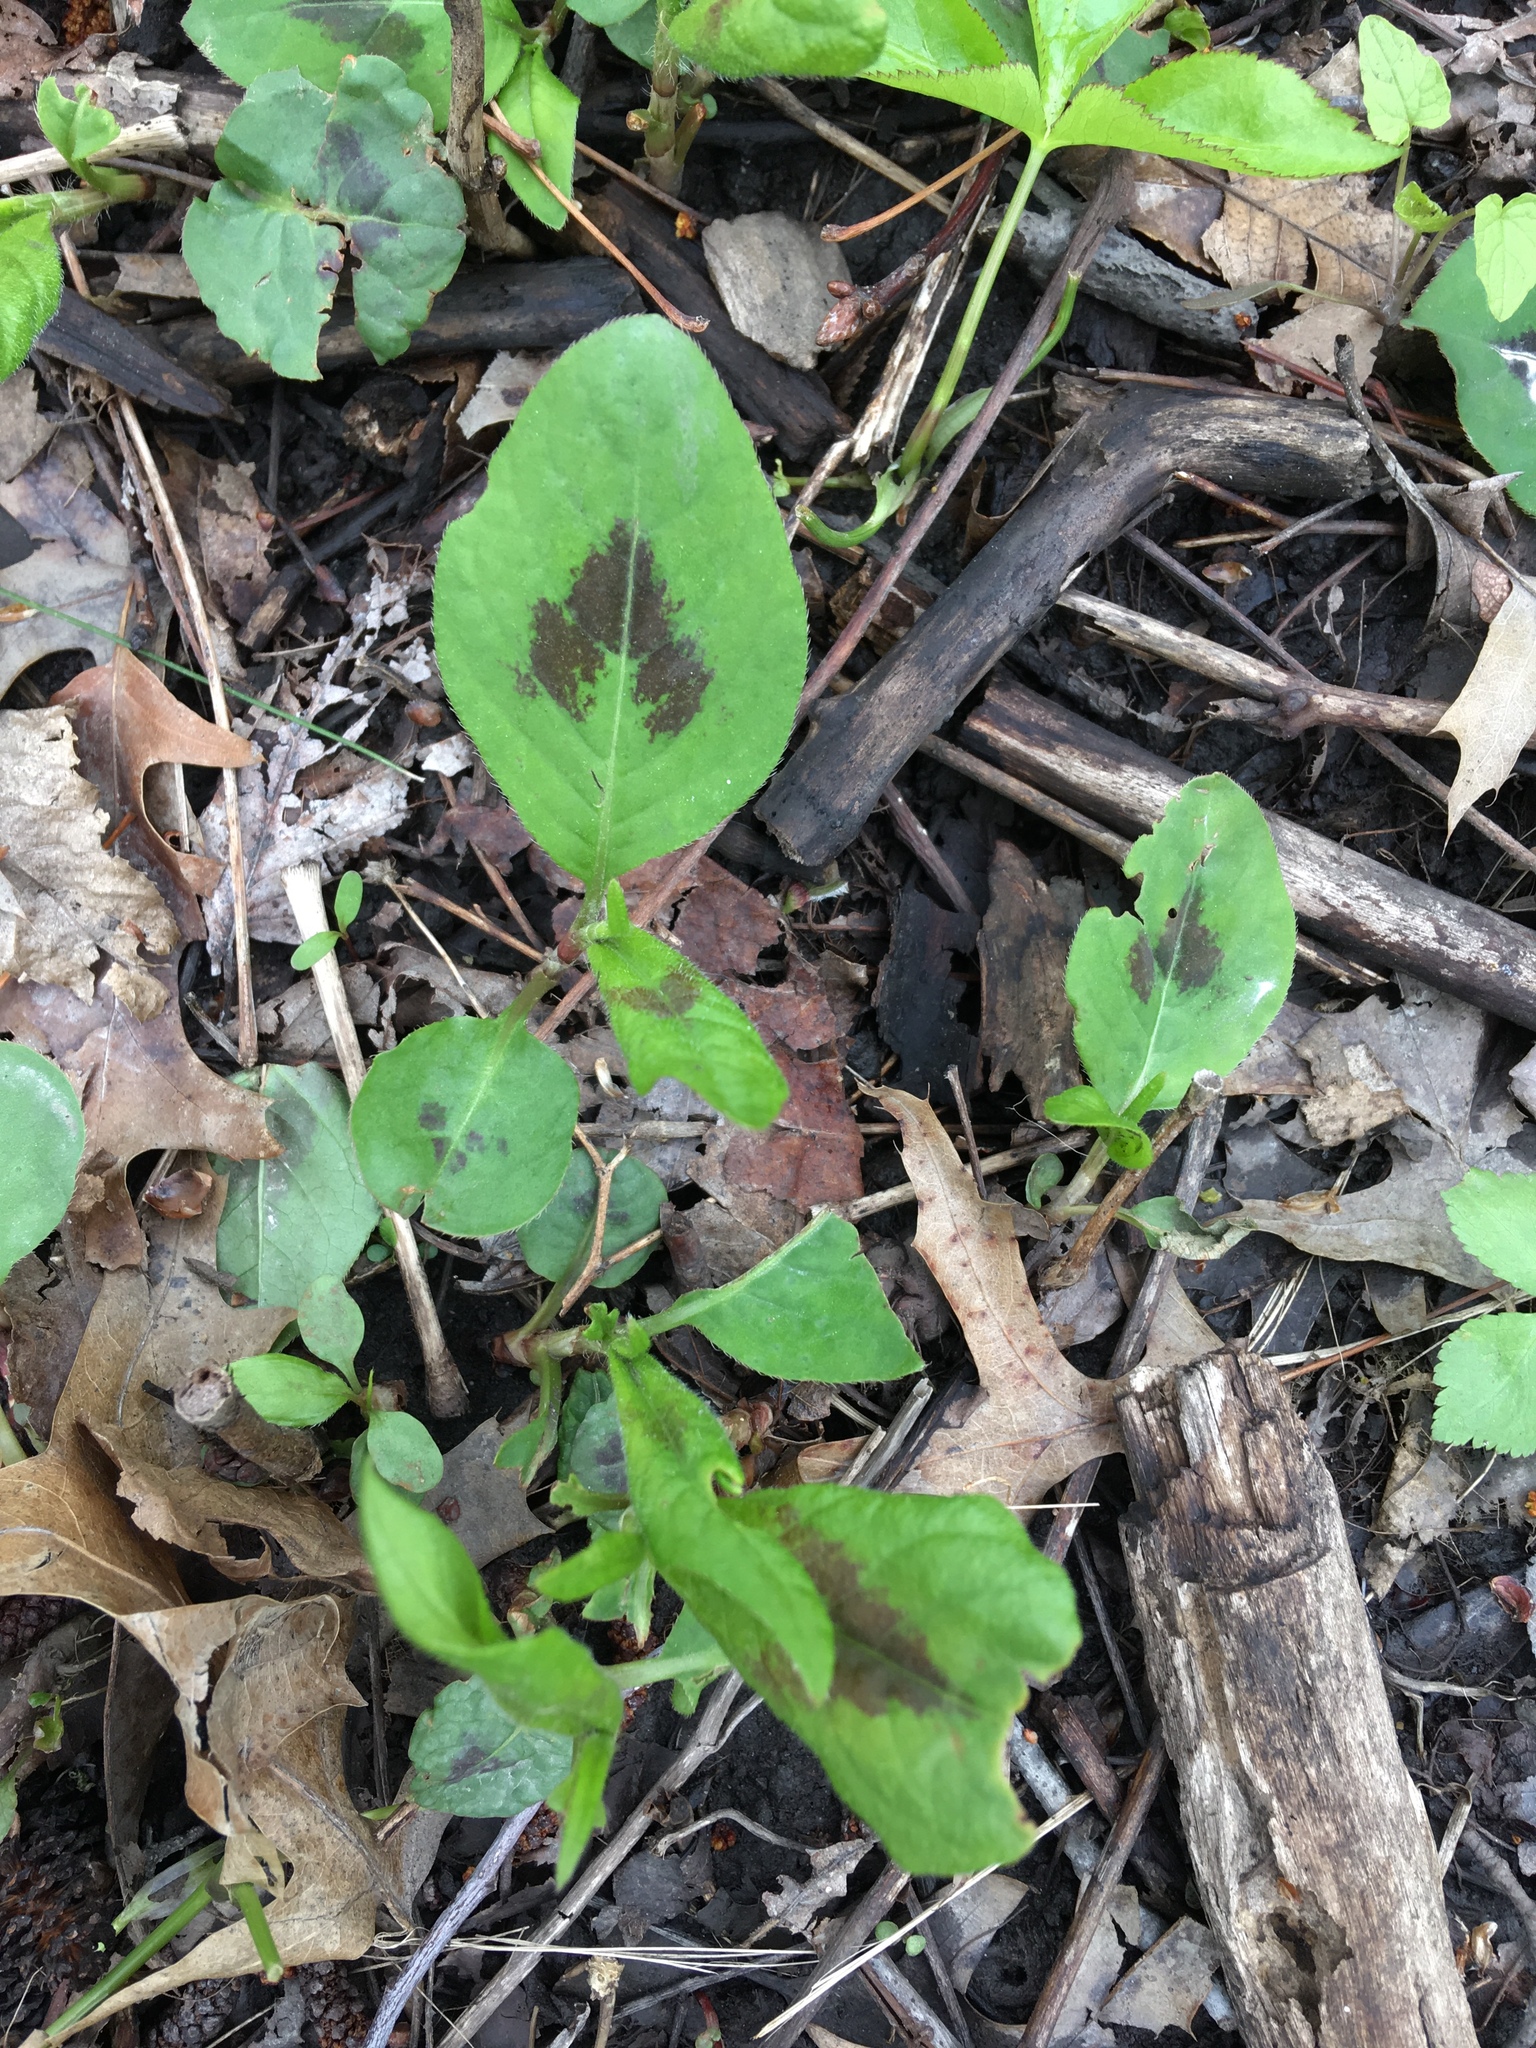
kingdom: Plantae
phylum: Tracheophyta
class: Magnoliopsida
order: Caryophyllales
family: Polygonaceae
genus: Persicaria
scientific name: Persicaria virginiana
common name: Jumpseed
